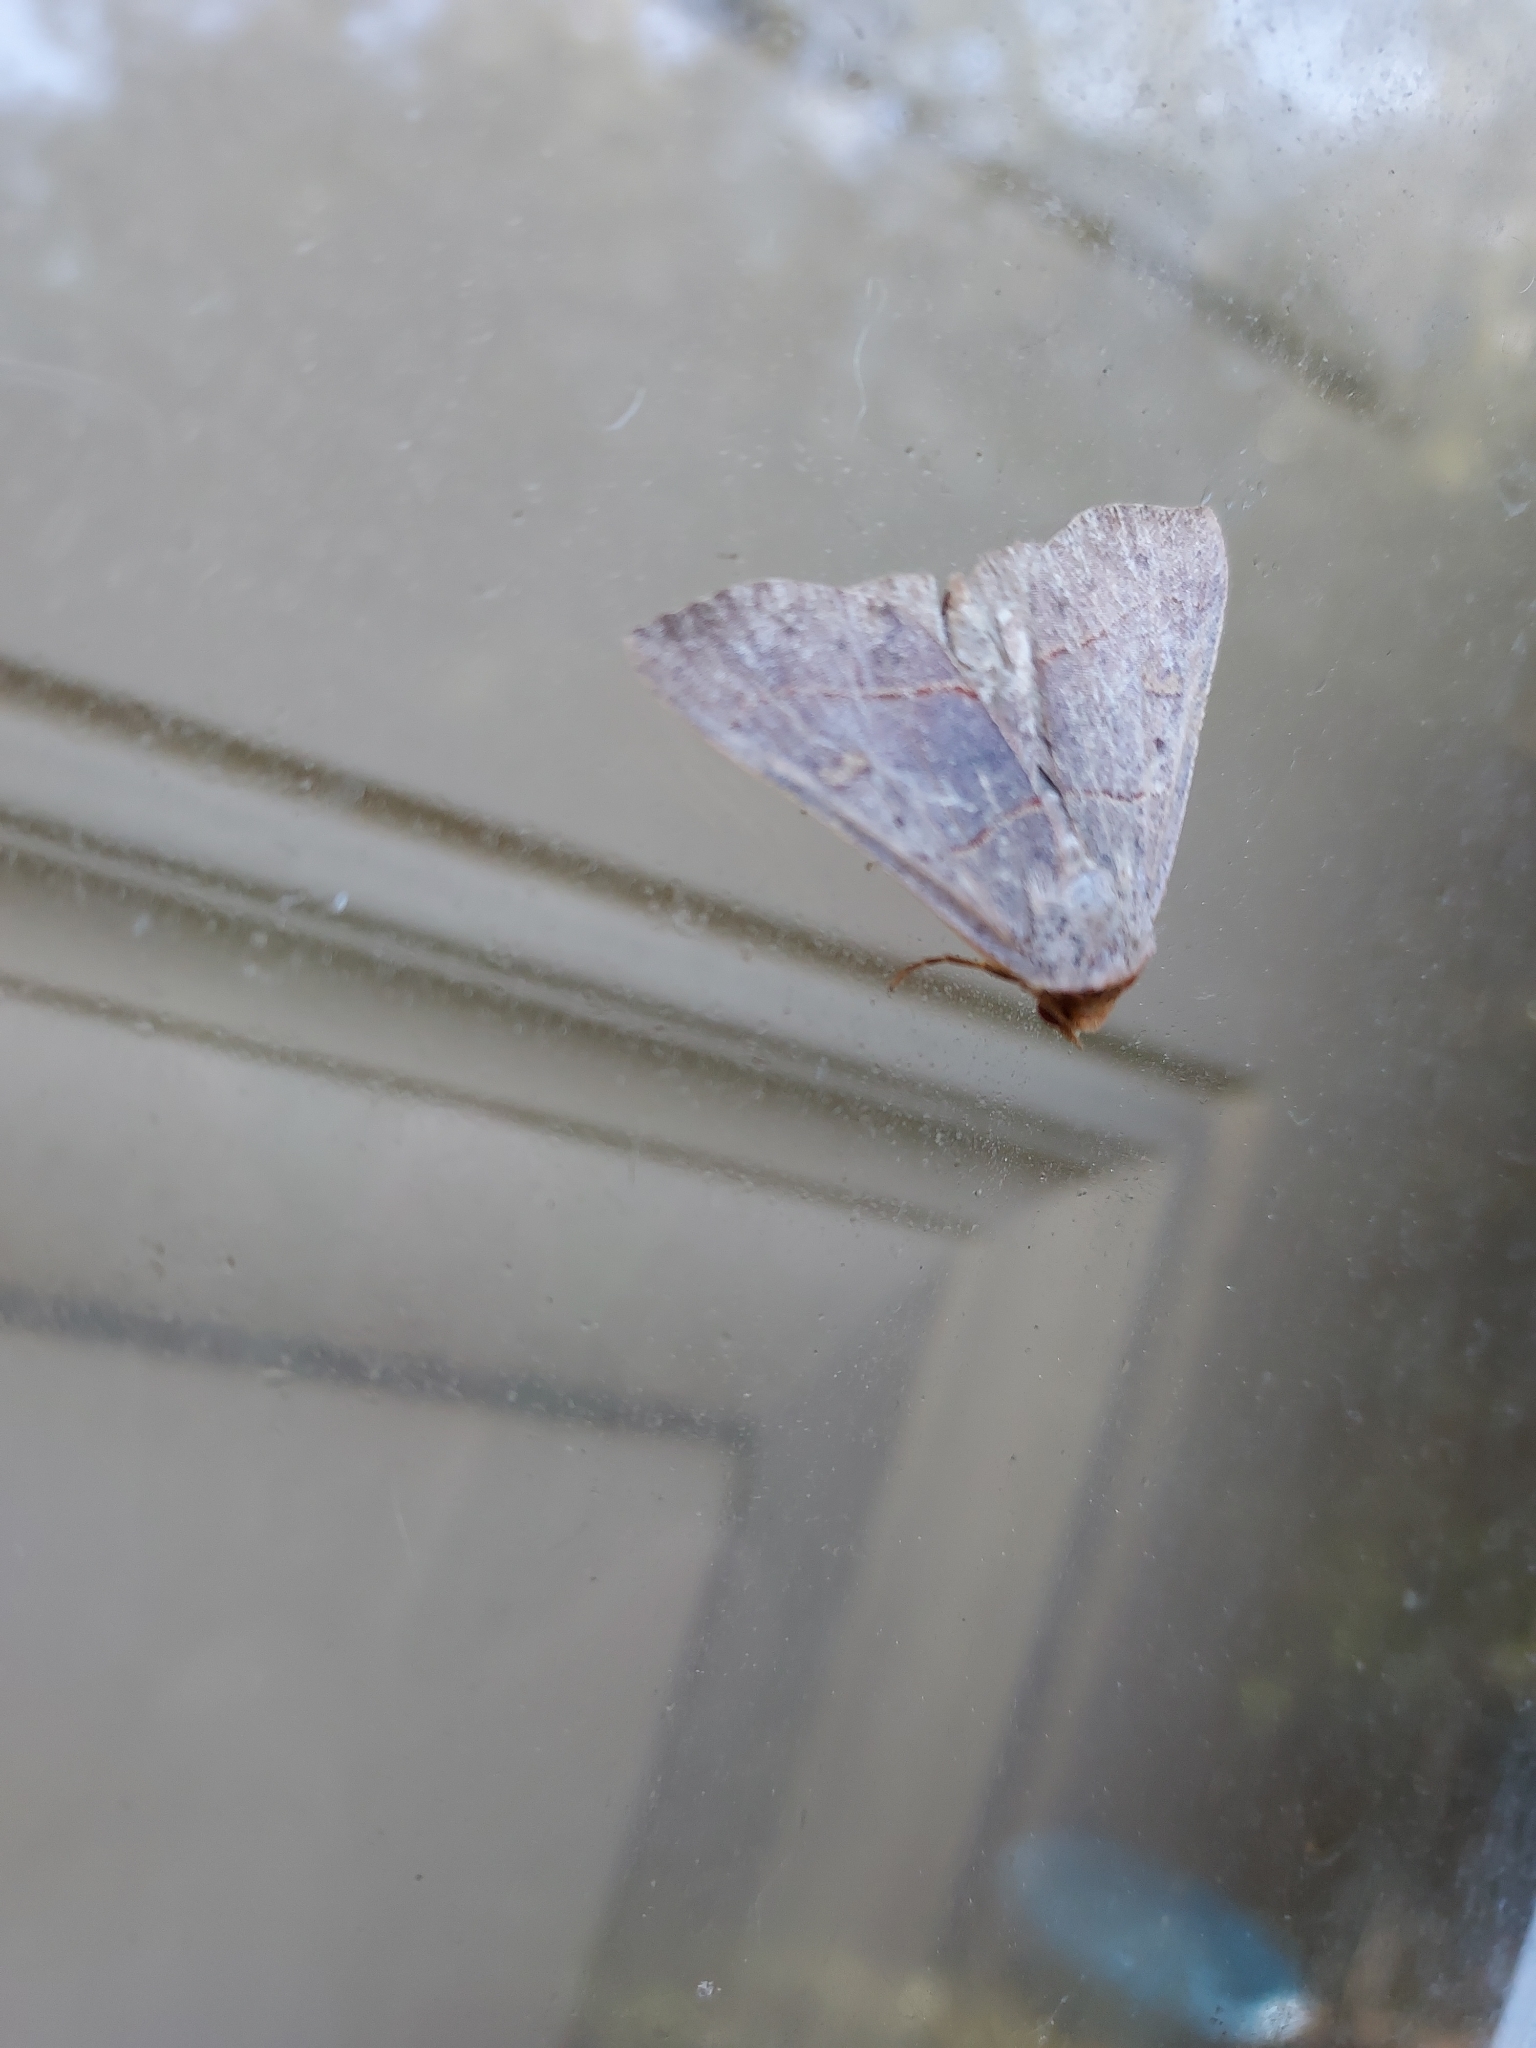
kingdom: Animalia
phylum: Arthropoda
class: Insecta
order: Lepidoptera
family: Erebidae
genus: Panopoda
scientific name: Panopoda rufimargo
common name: Red-lined panopoda moth
